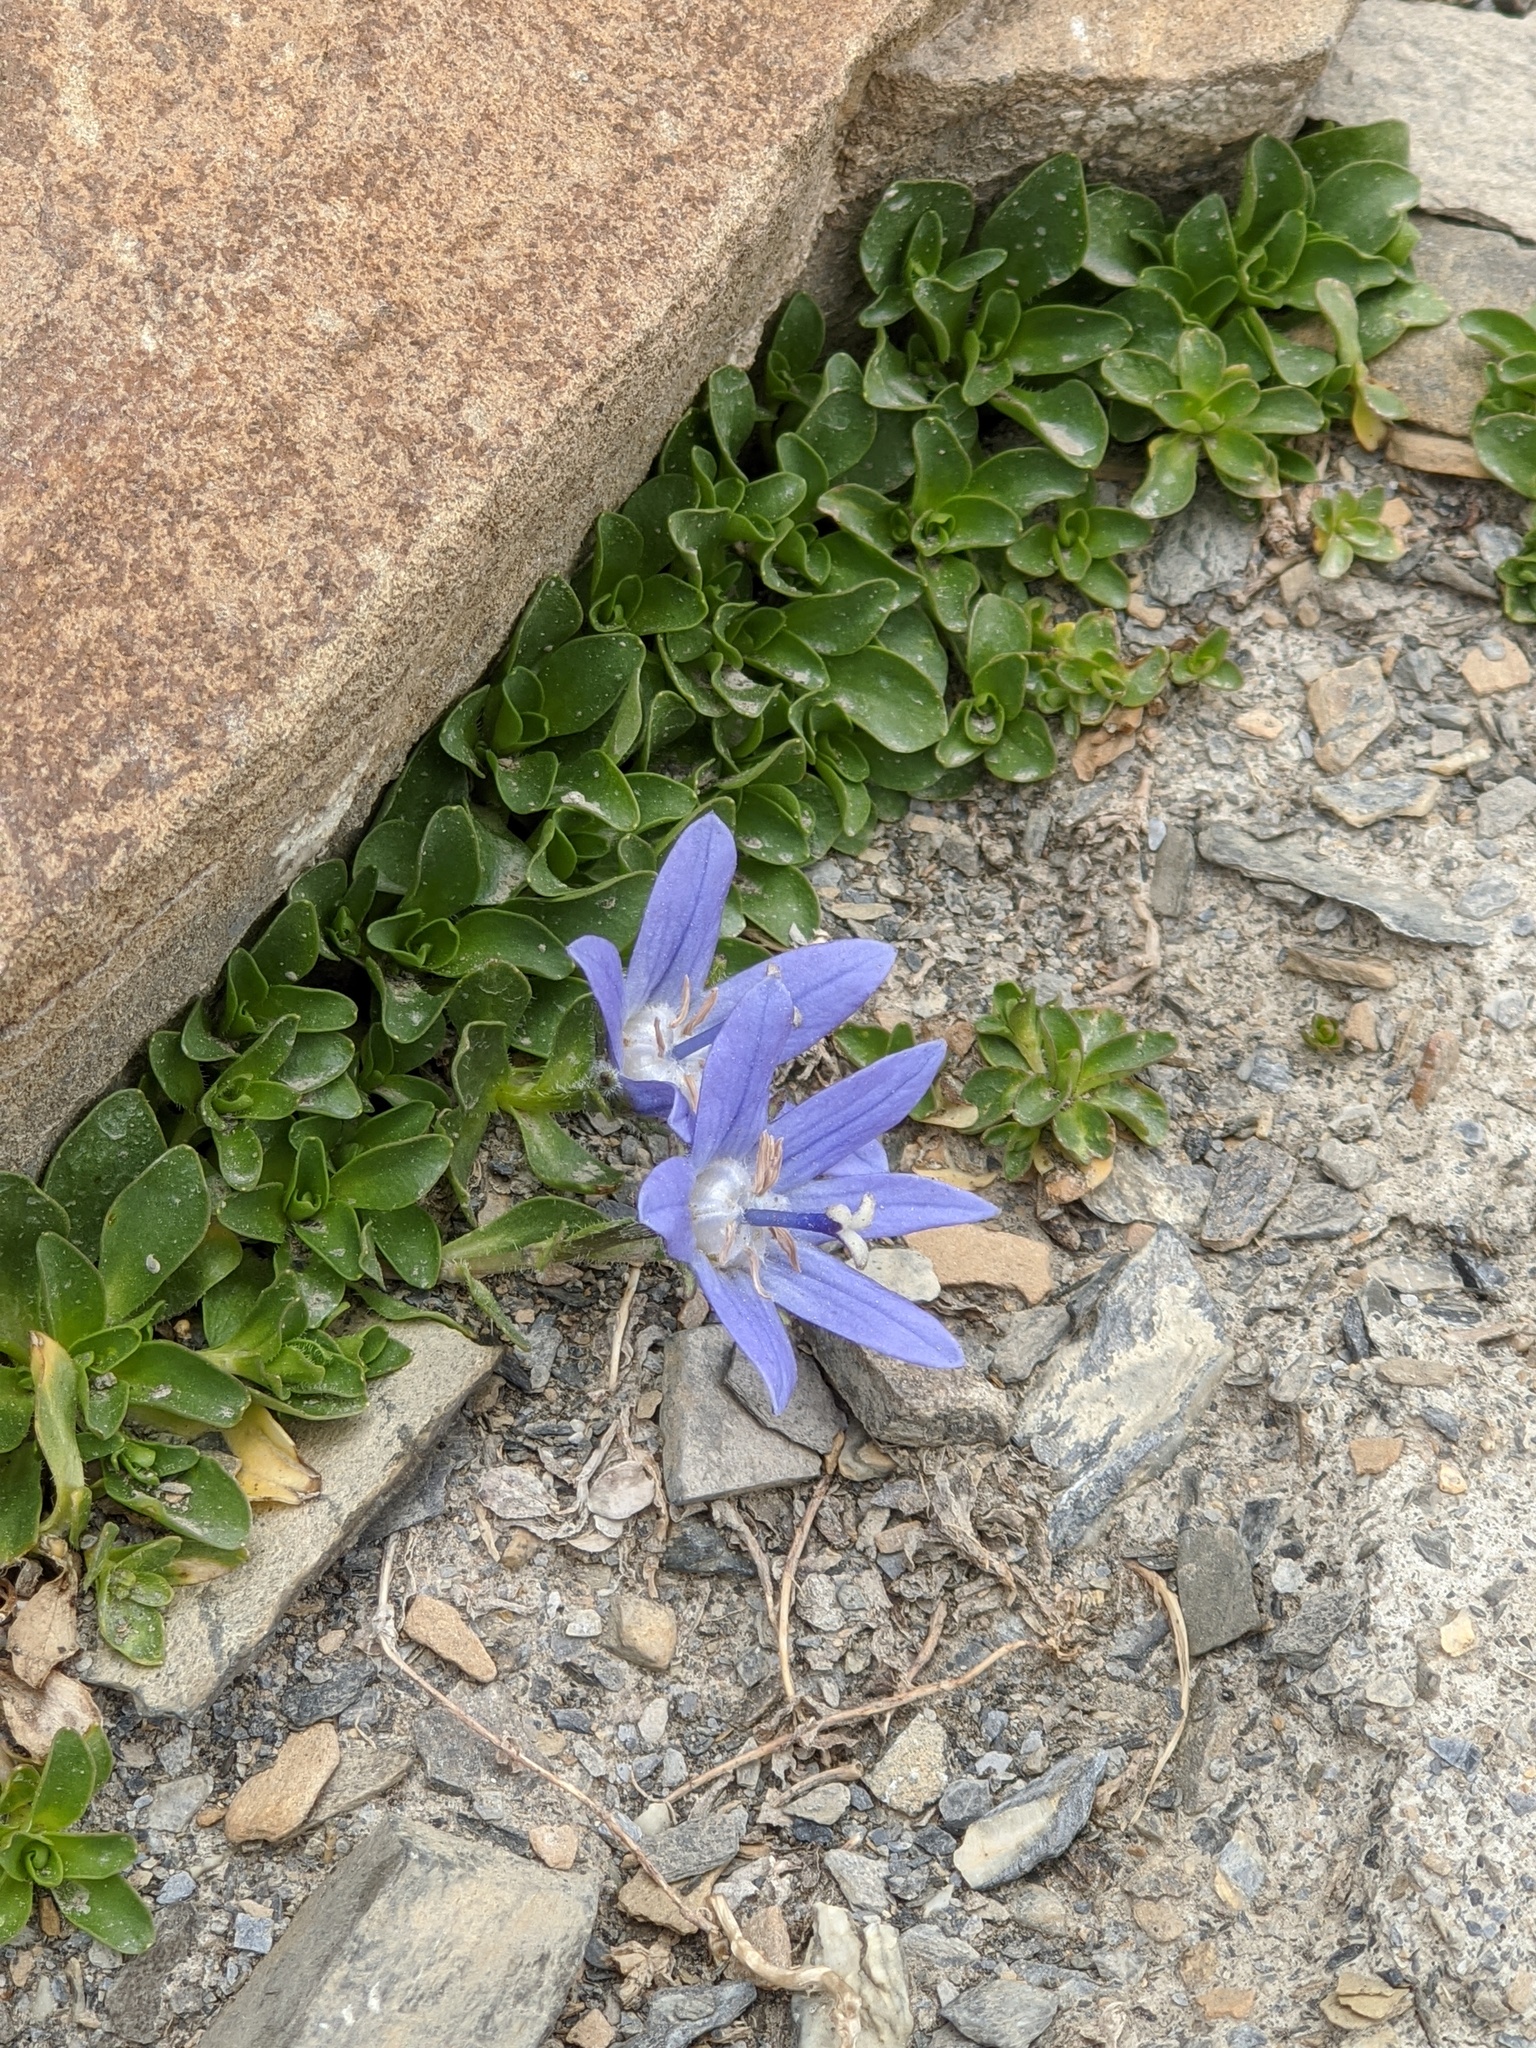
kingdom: Plantae
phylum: Tracheophyta
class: Magnoliopsida
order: Asterales
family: Campanulaceae
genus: Campanula
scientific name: Campanula cenisia
